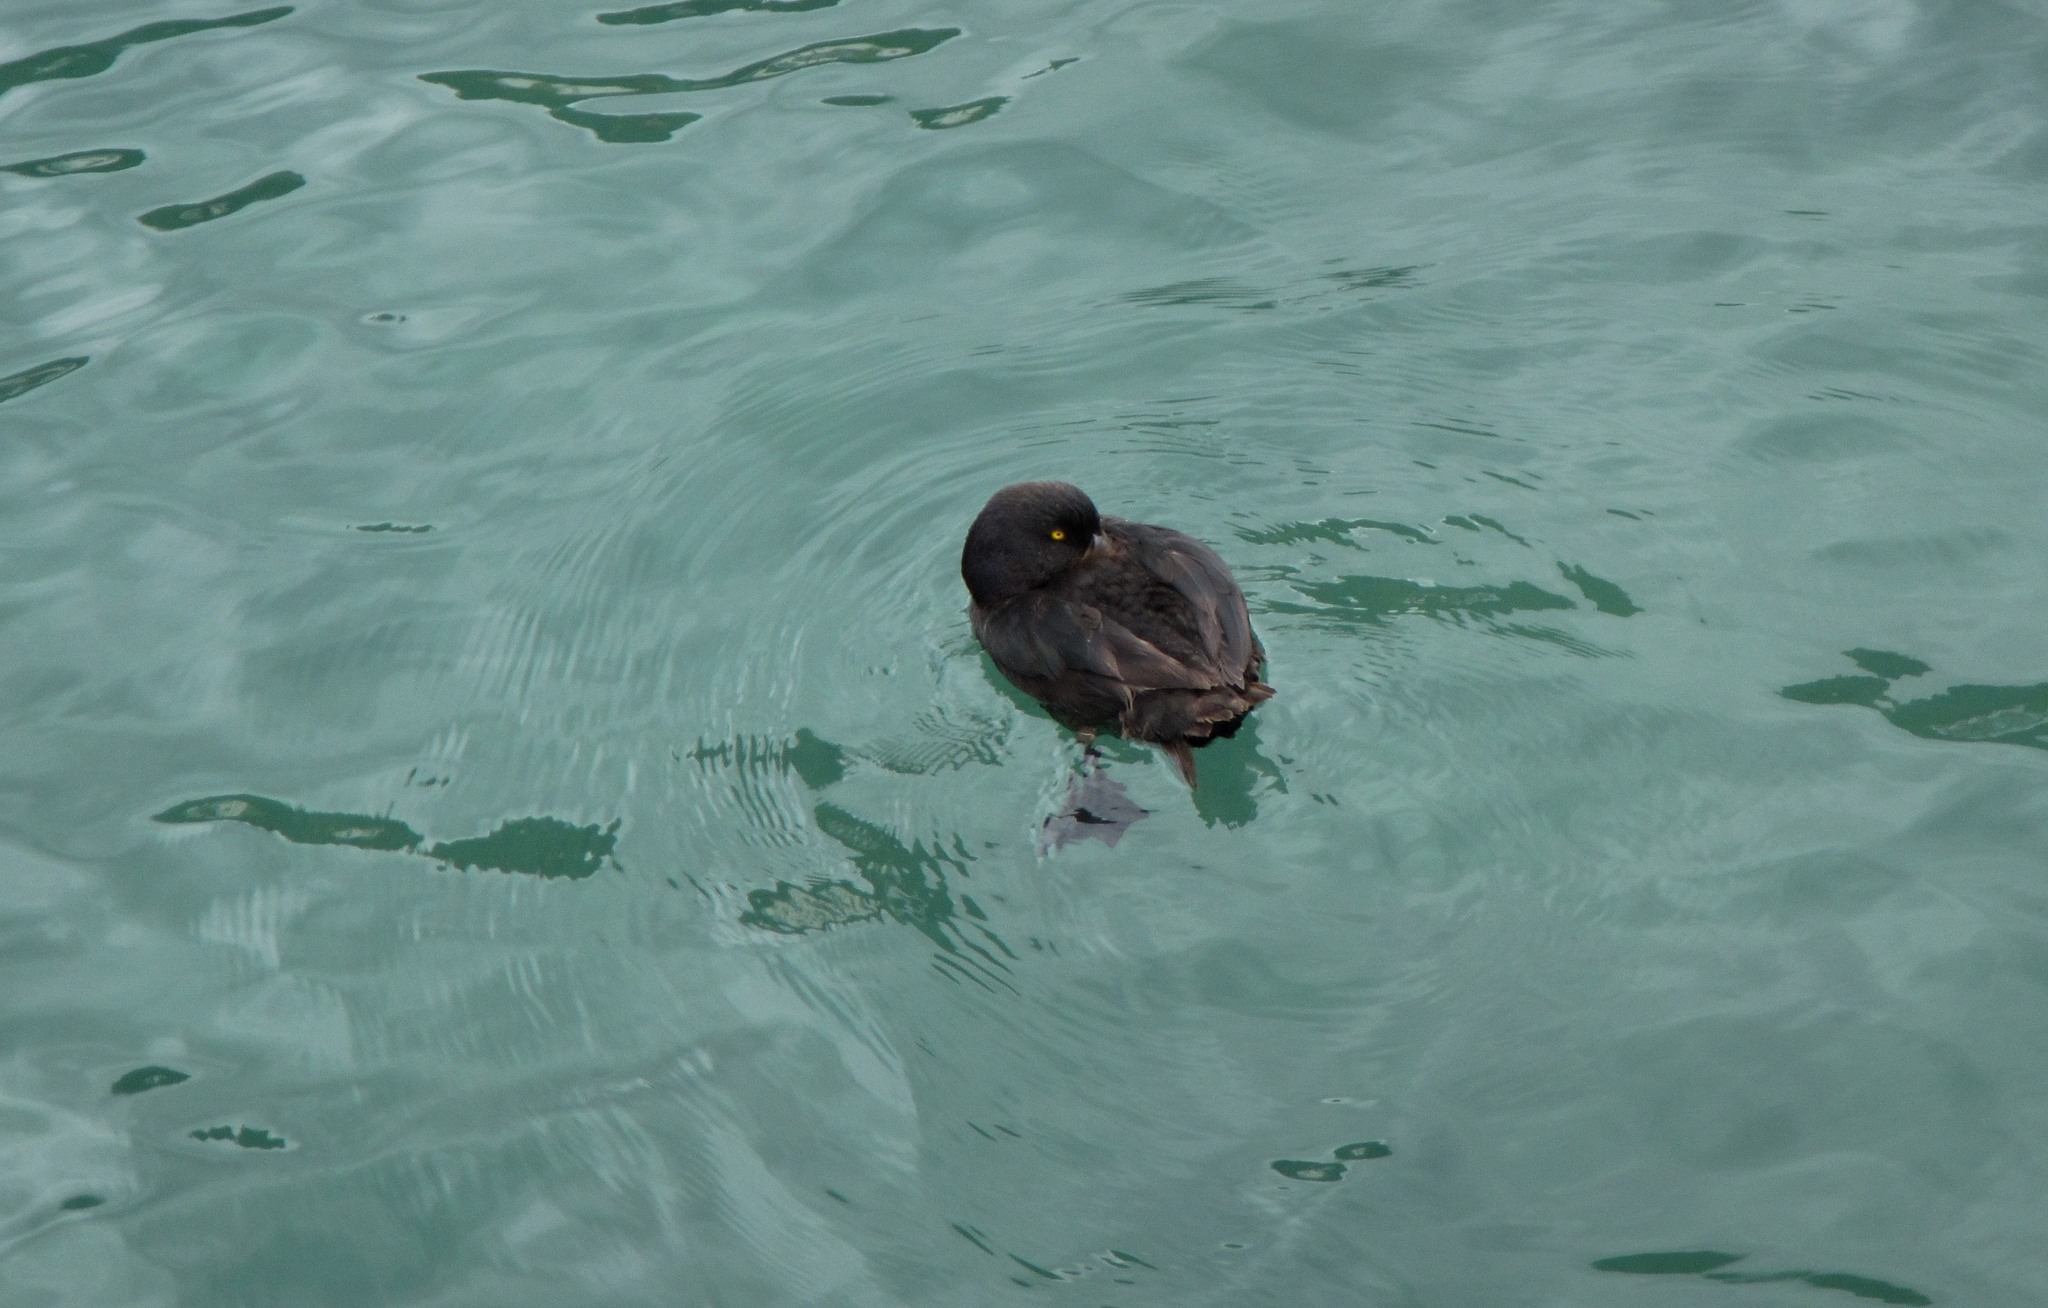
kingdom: Animalia
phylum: Chordata
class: Aves
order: Anseriformes
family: Anatidae
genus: Aythya
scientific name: Aythya novaeseelandiae
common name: New zealand scaup
